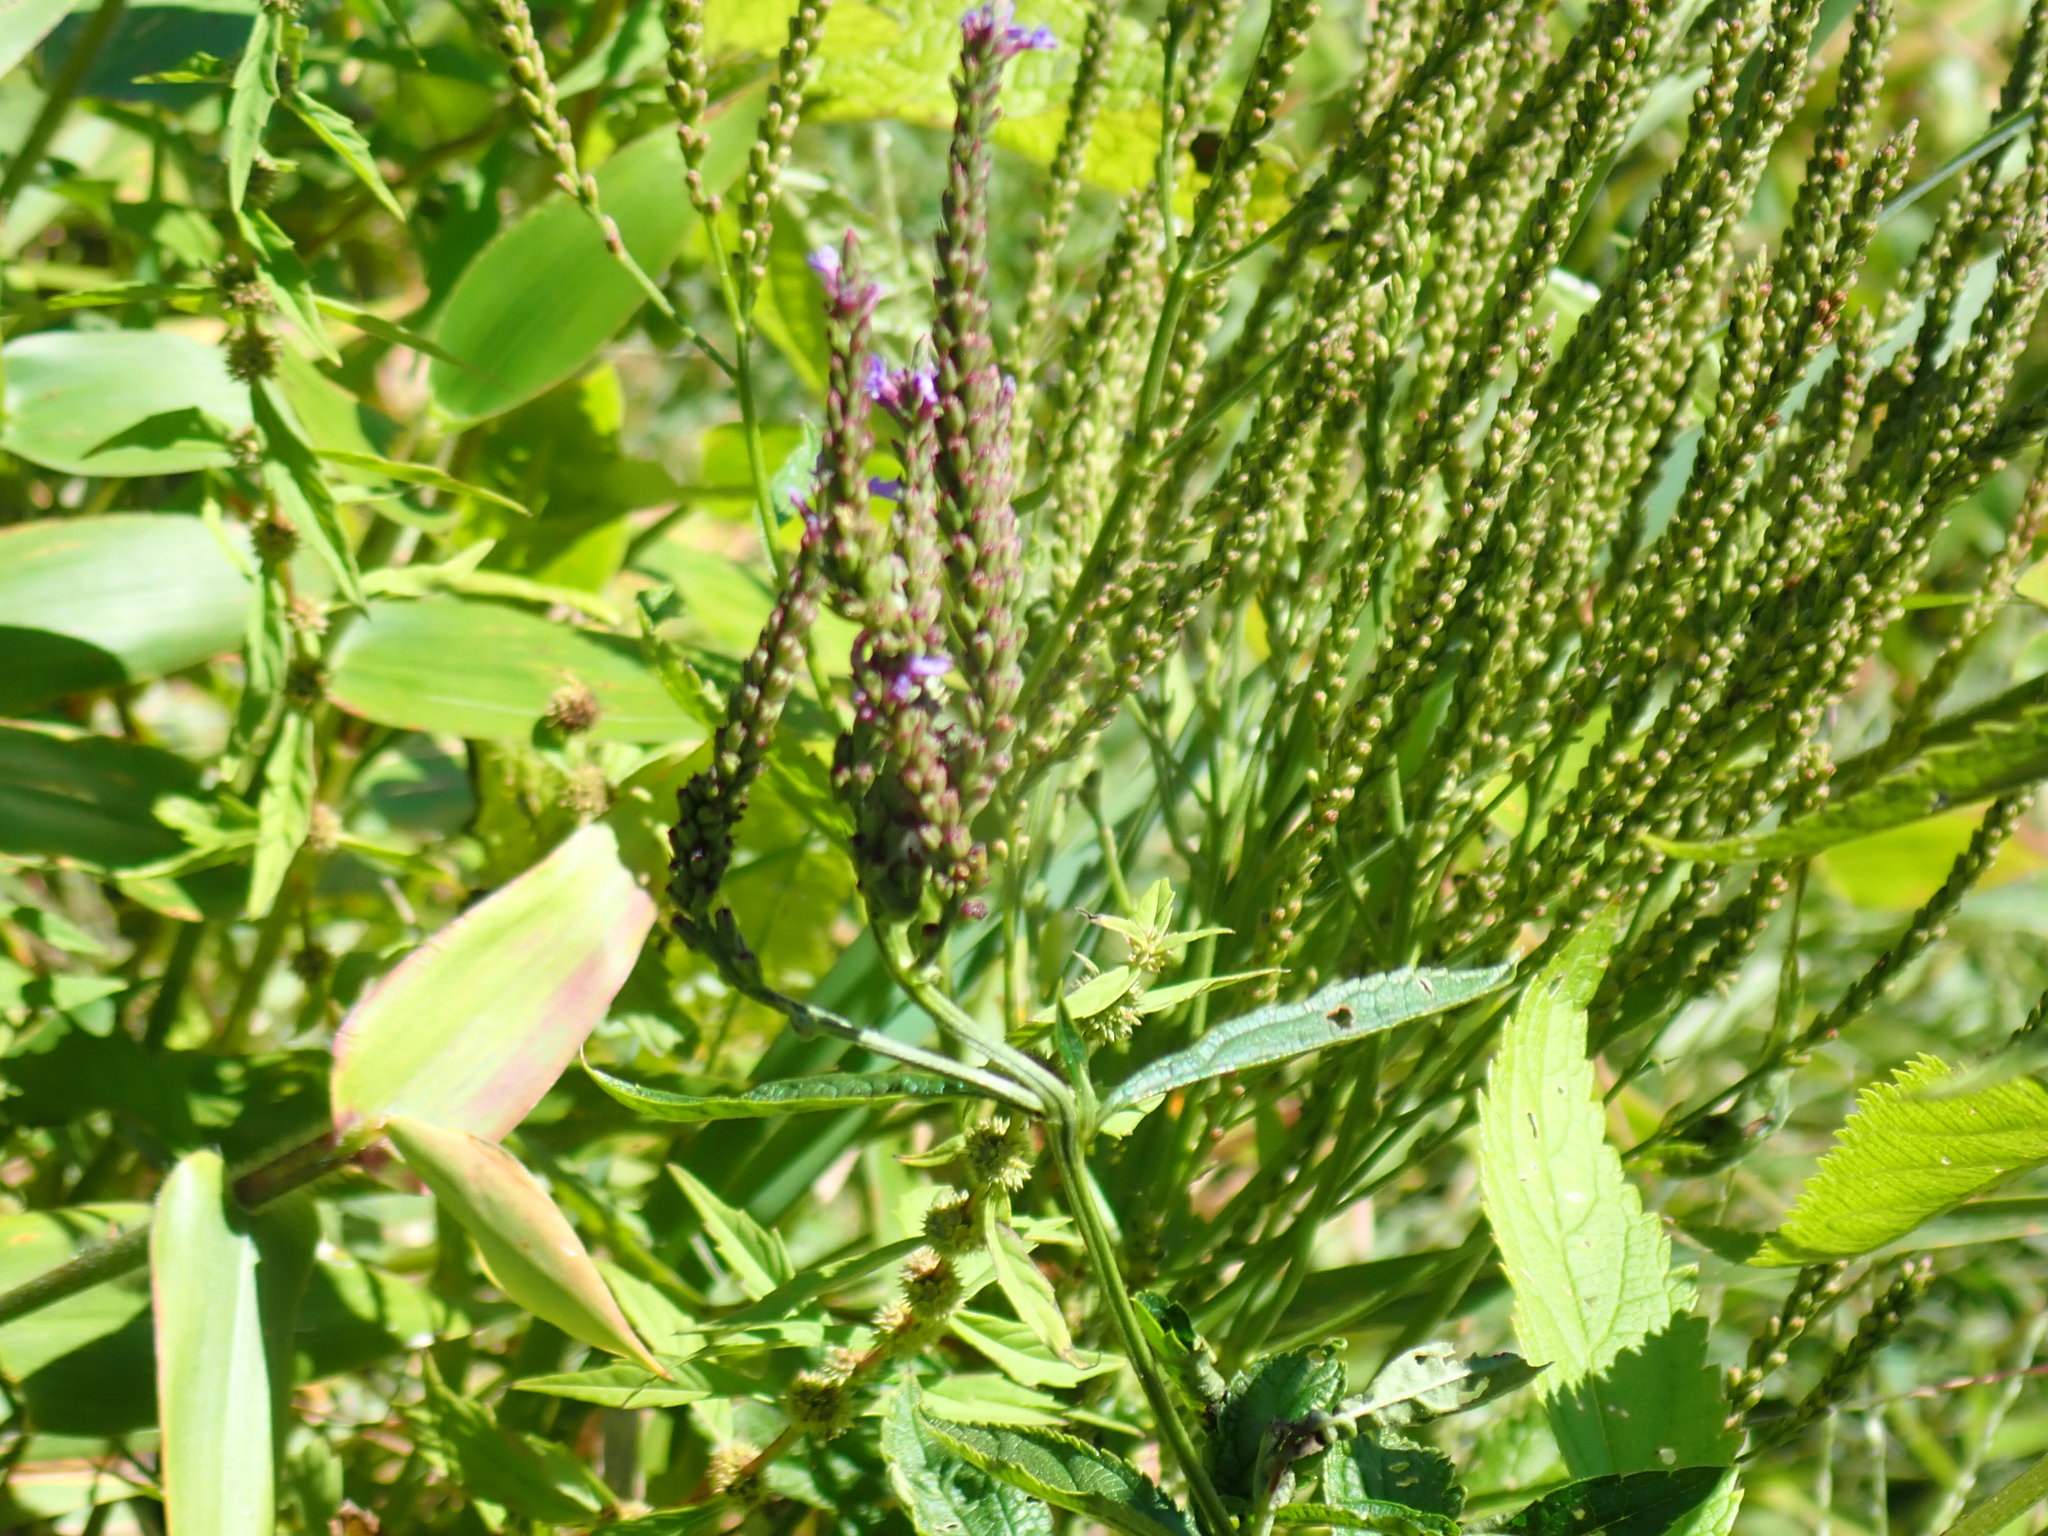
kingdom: Plantae
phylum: Tracheophyta
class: Magnoliopsida
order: Lamiales
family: Verbenaceae
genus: Verbena
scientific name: Verbena hastata
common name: American blue vervain
